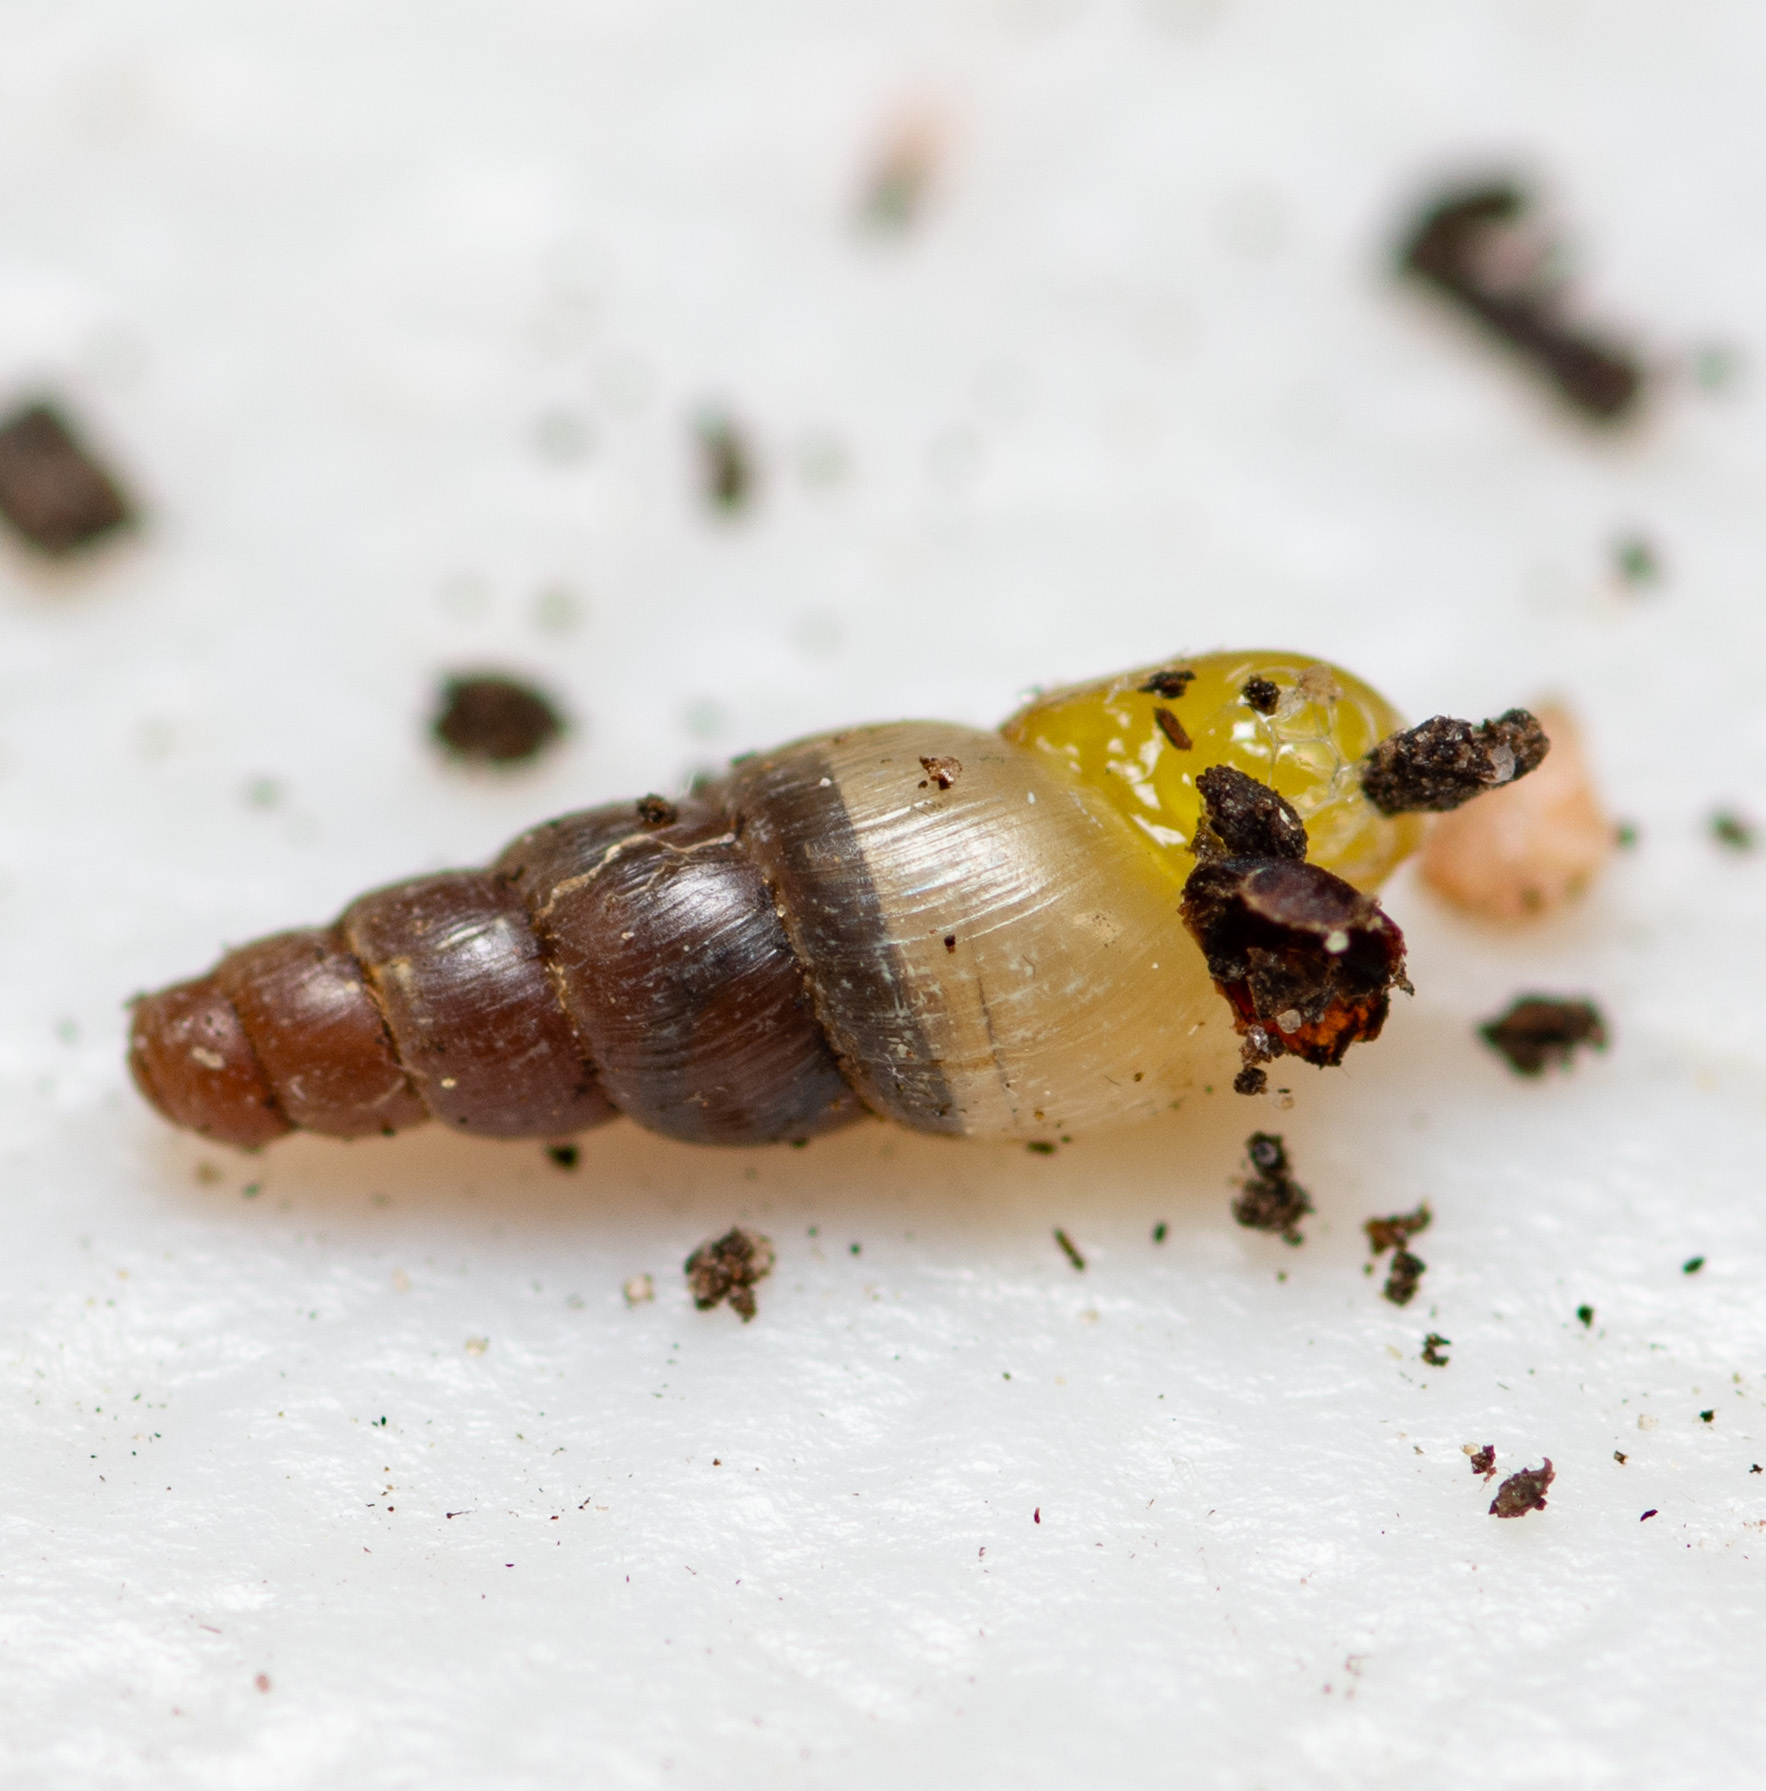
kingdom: Animalia
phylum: Mollusca
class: Gastropoda
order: Stylommatophora
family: Achatinidae
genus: Allopeas
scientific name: Allopeas gracile
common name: Graceful awlsnail
